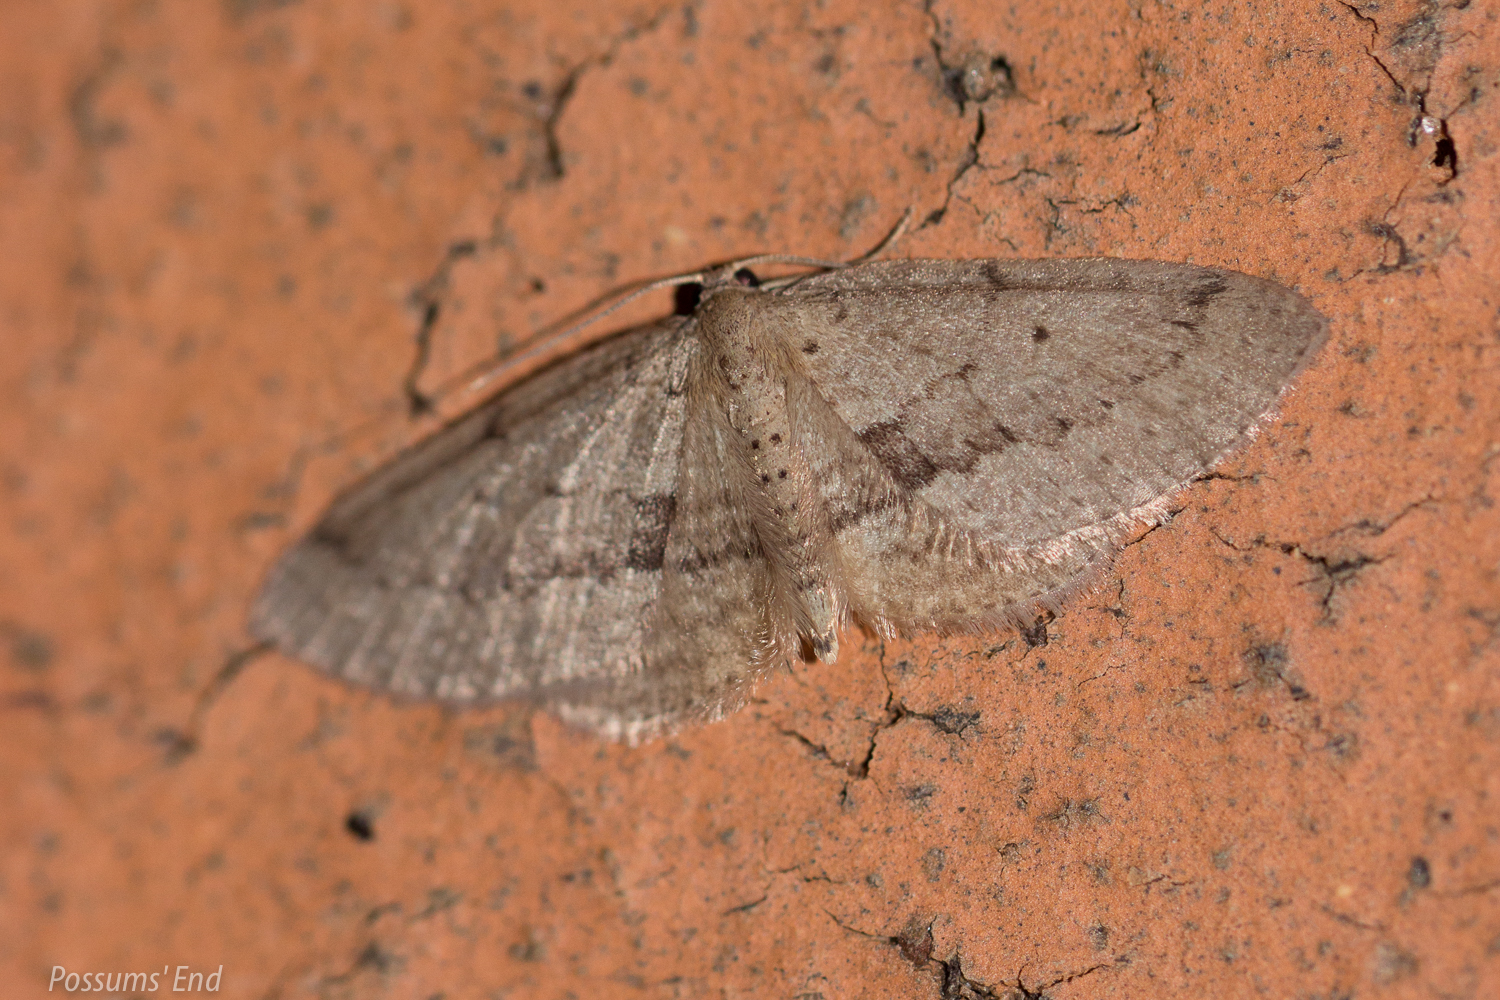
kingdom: Animalia
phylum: Arthropoda
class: Insecta
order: Lepidoptera
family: Geometridae
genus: Poecilasthena
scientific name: Poecilasthena schistaria
